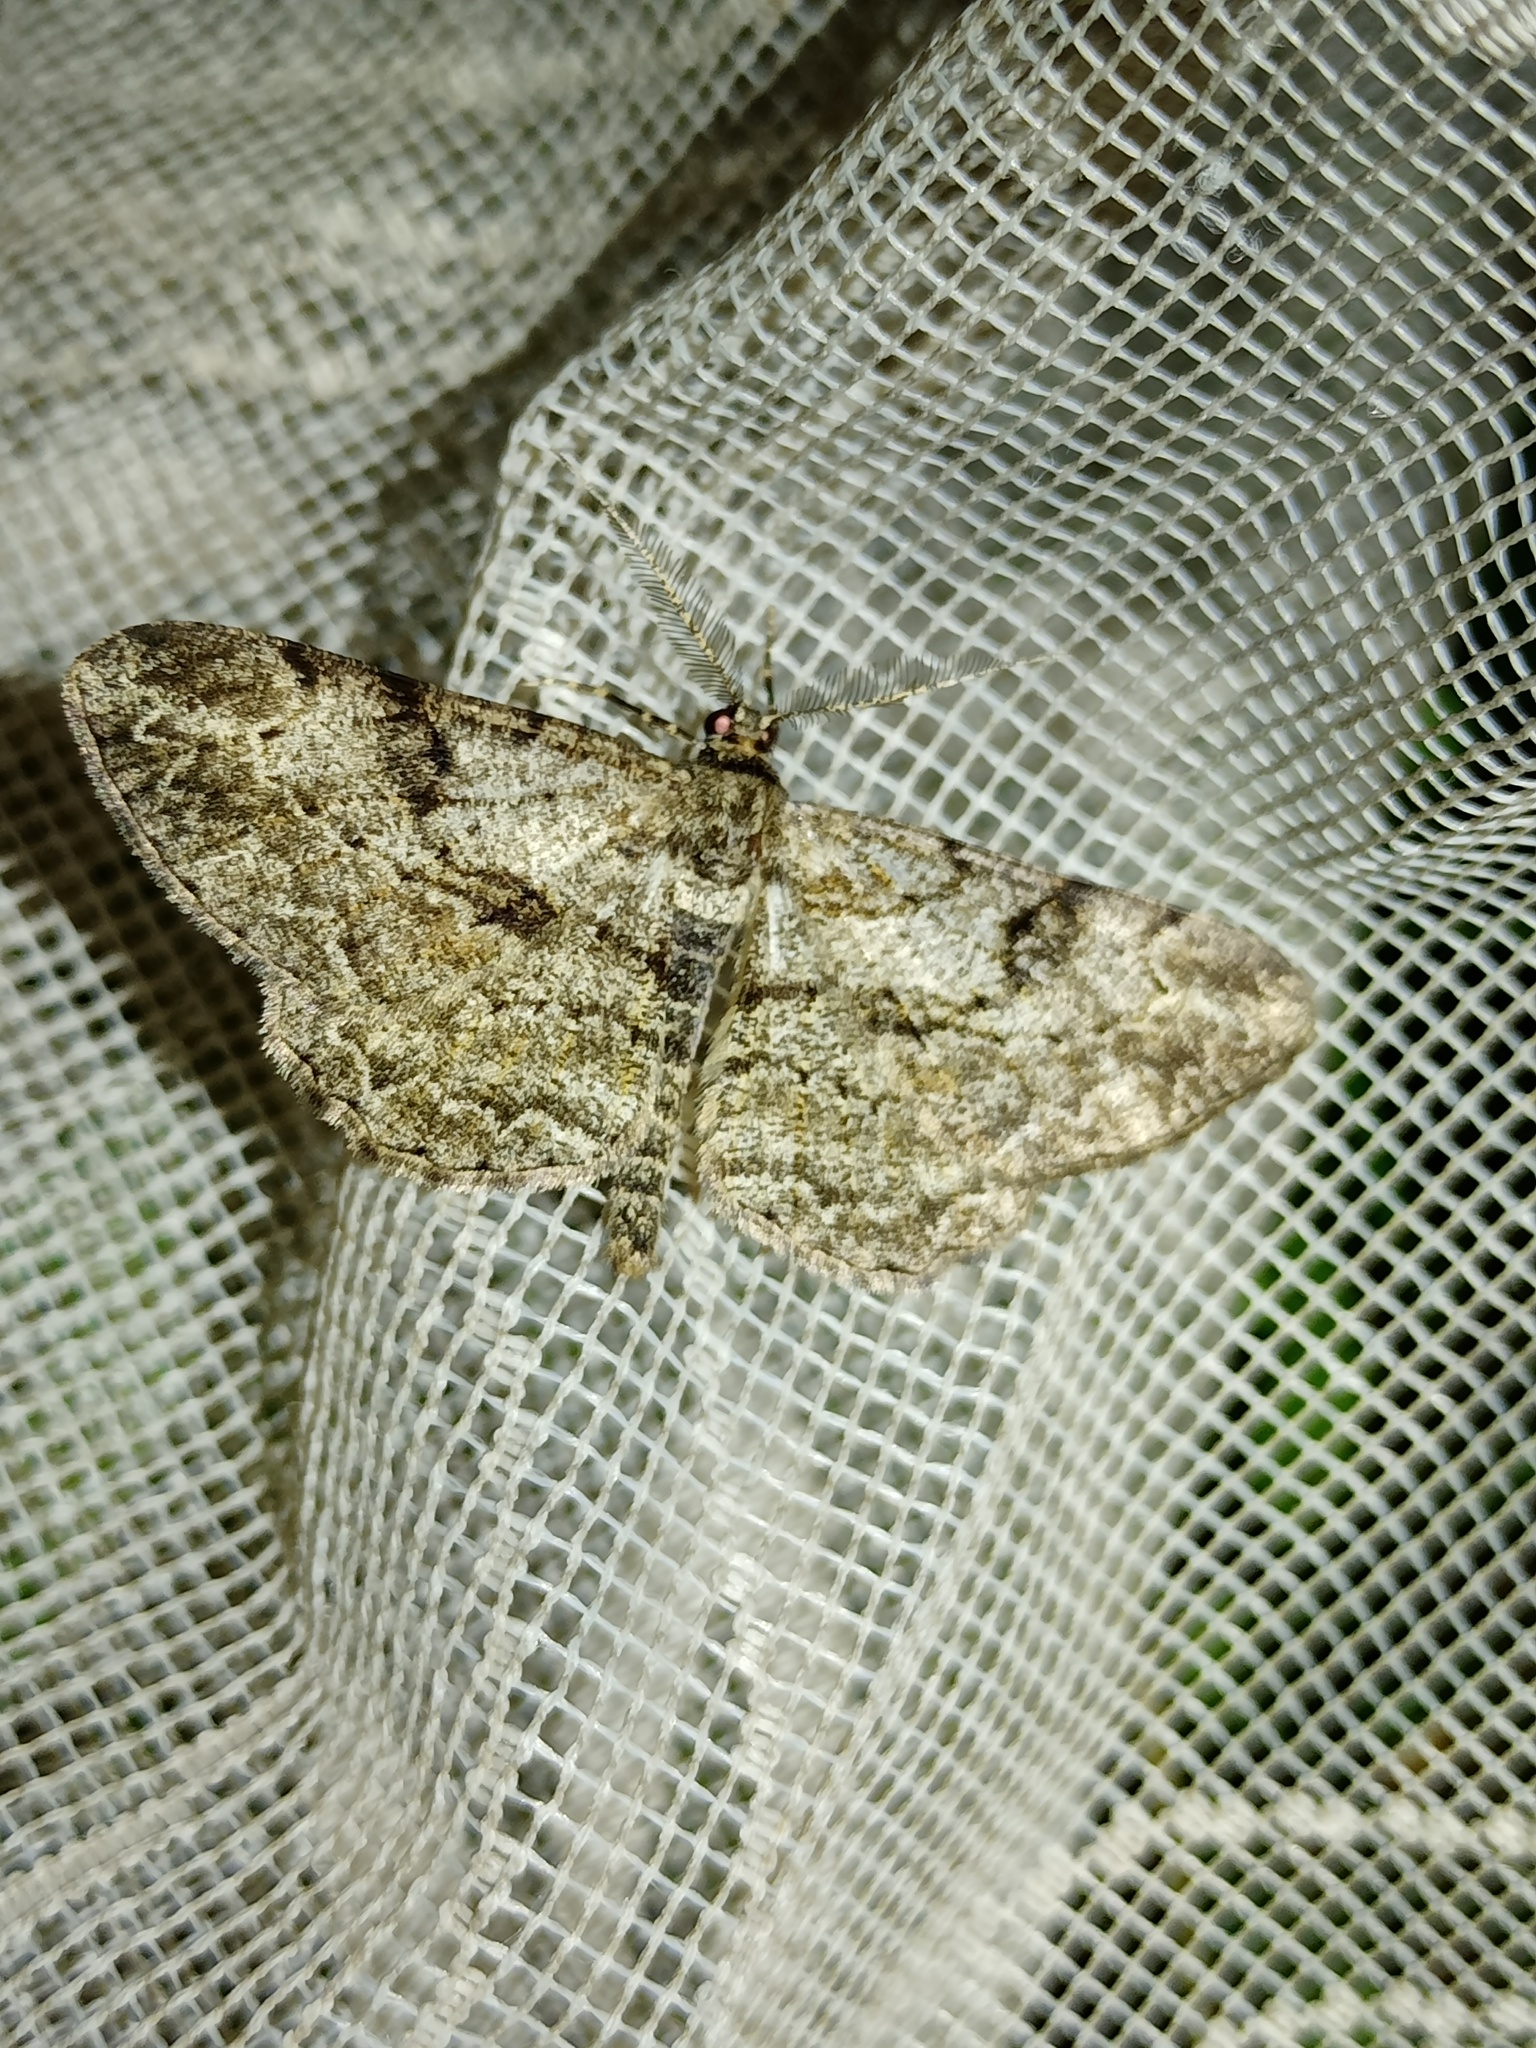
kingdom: Animalia
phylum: Arthropoda
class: Insecta
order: Lepidoptera
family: Geometridae
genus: Peribatodes
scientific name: Peribatodes rhomboidaria
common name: Willow beauty
